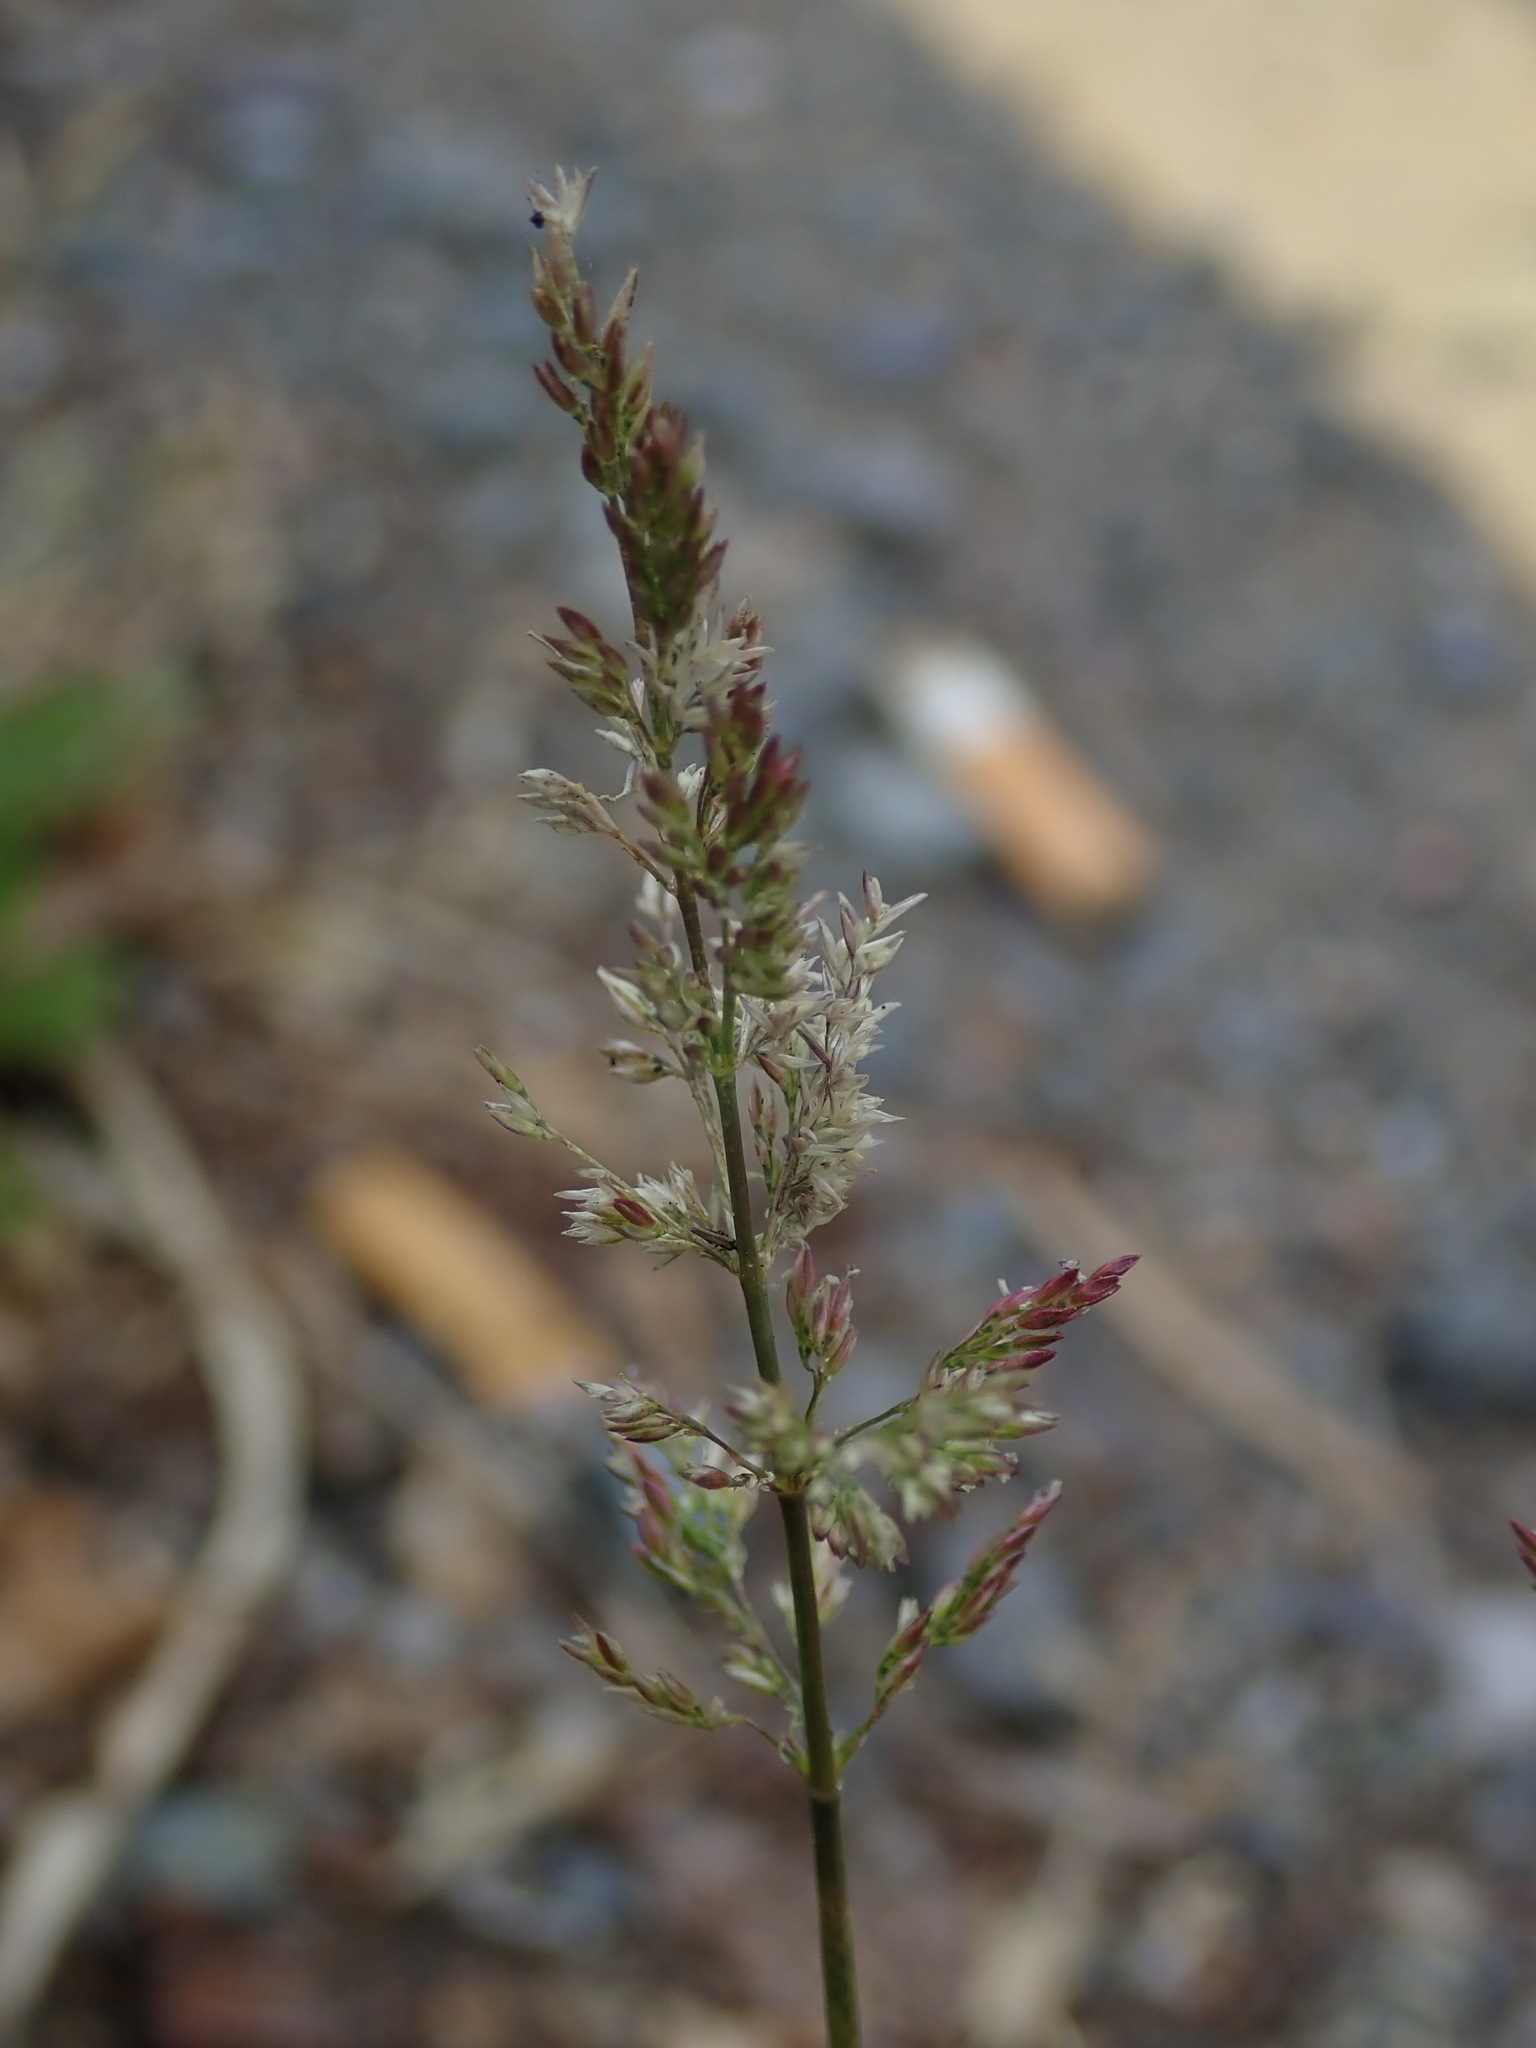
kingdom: Plantae
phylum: Tracheophyta
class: Liliopsida
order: Poales
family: Poaceae
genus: Polypogon
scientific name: Polypogon viridis
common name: Water bent
